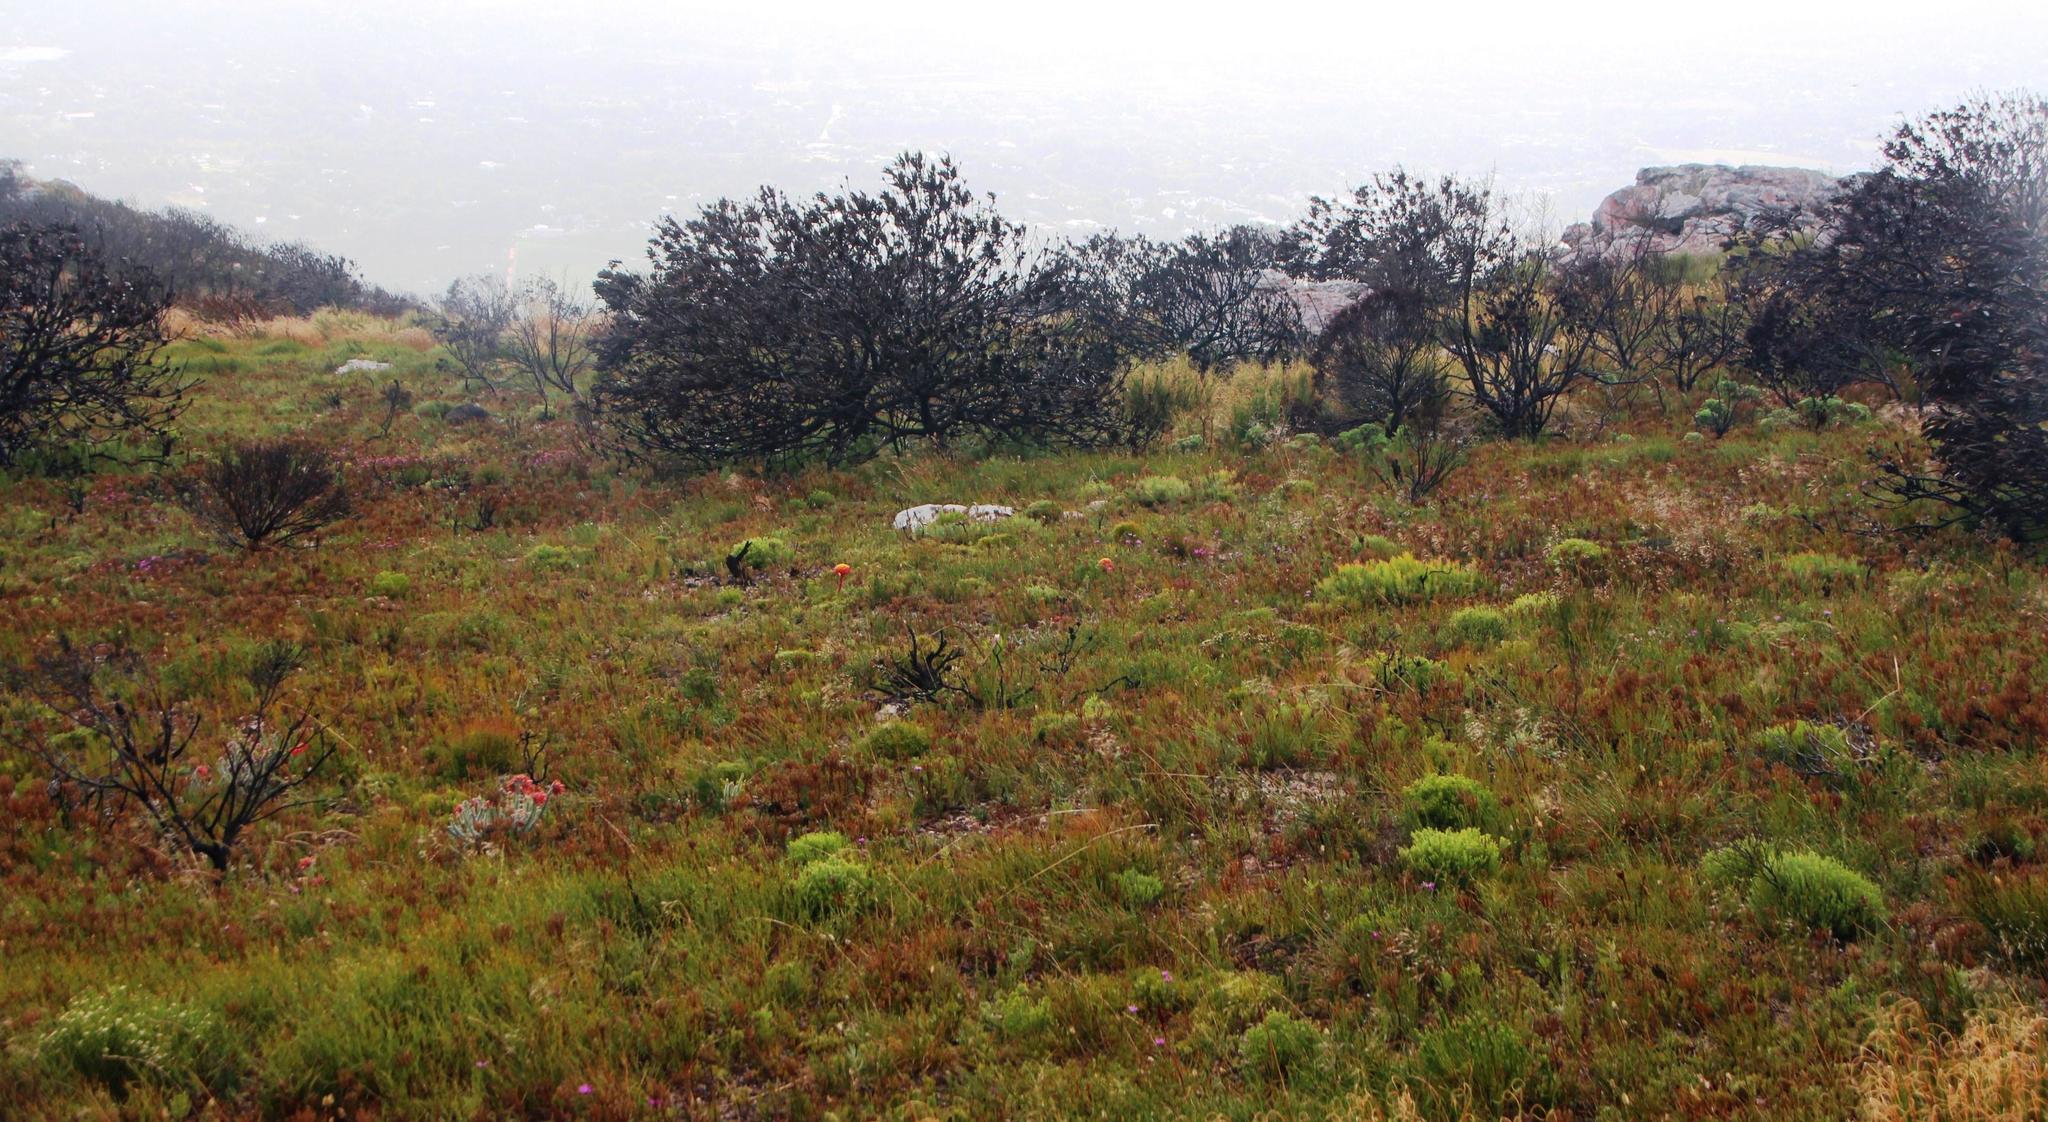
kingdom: Plantae
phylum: Tracheophyta
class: Magnoliopsida
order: Sapindales
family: Rutaceae
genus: Diosma
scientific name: Diosma oppositifolia
